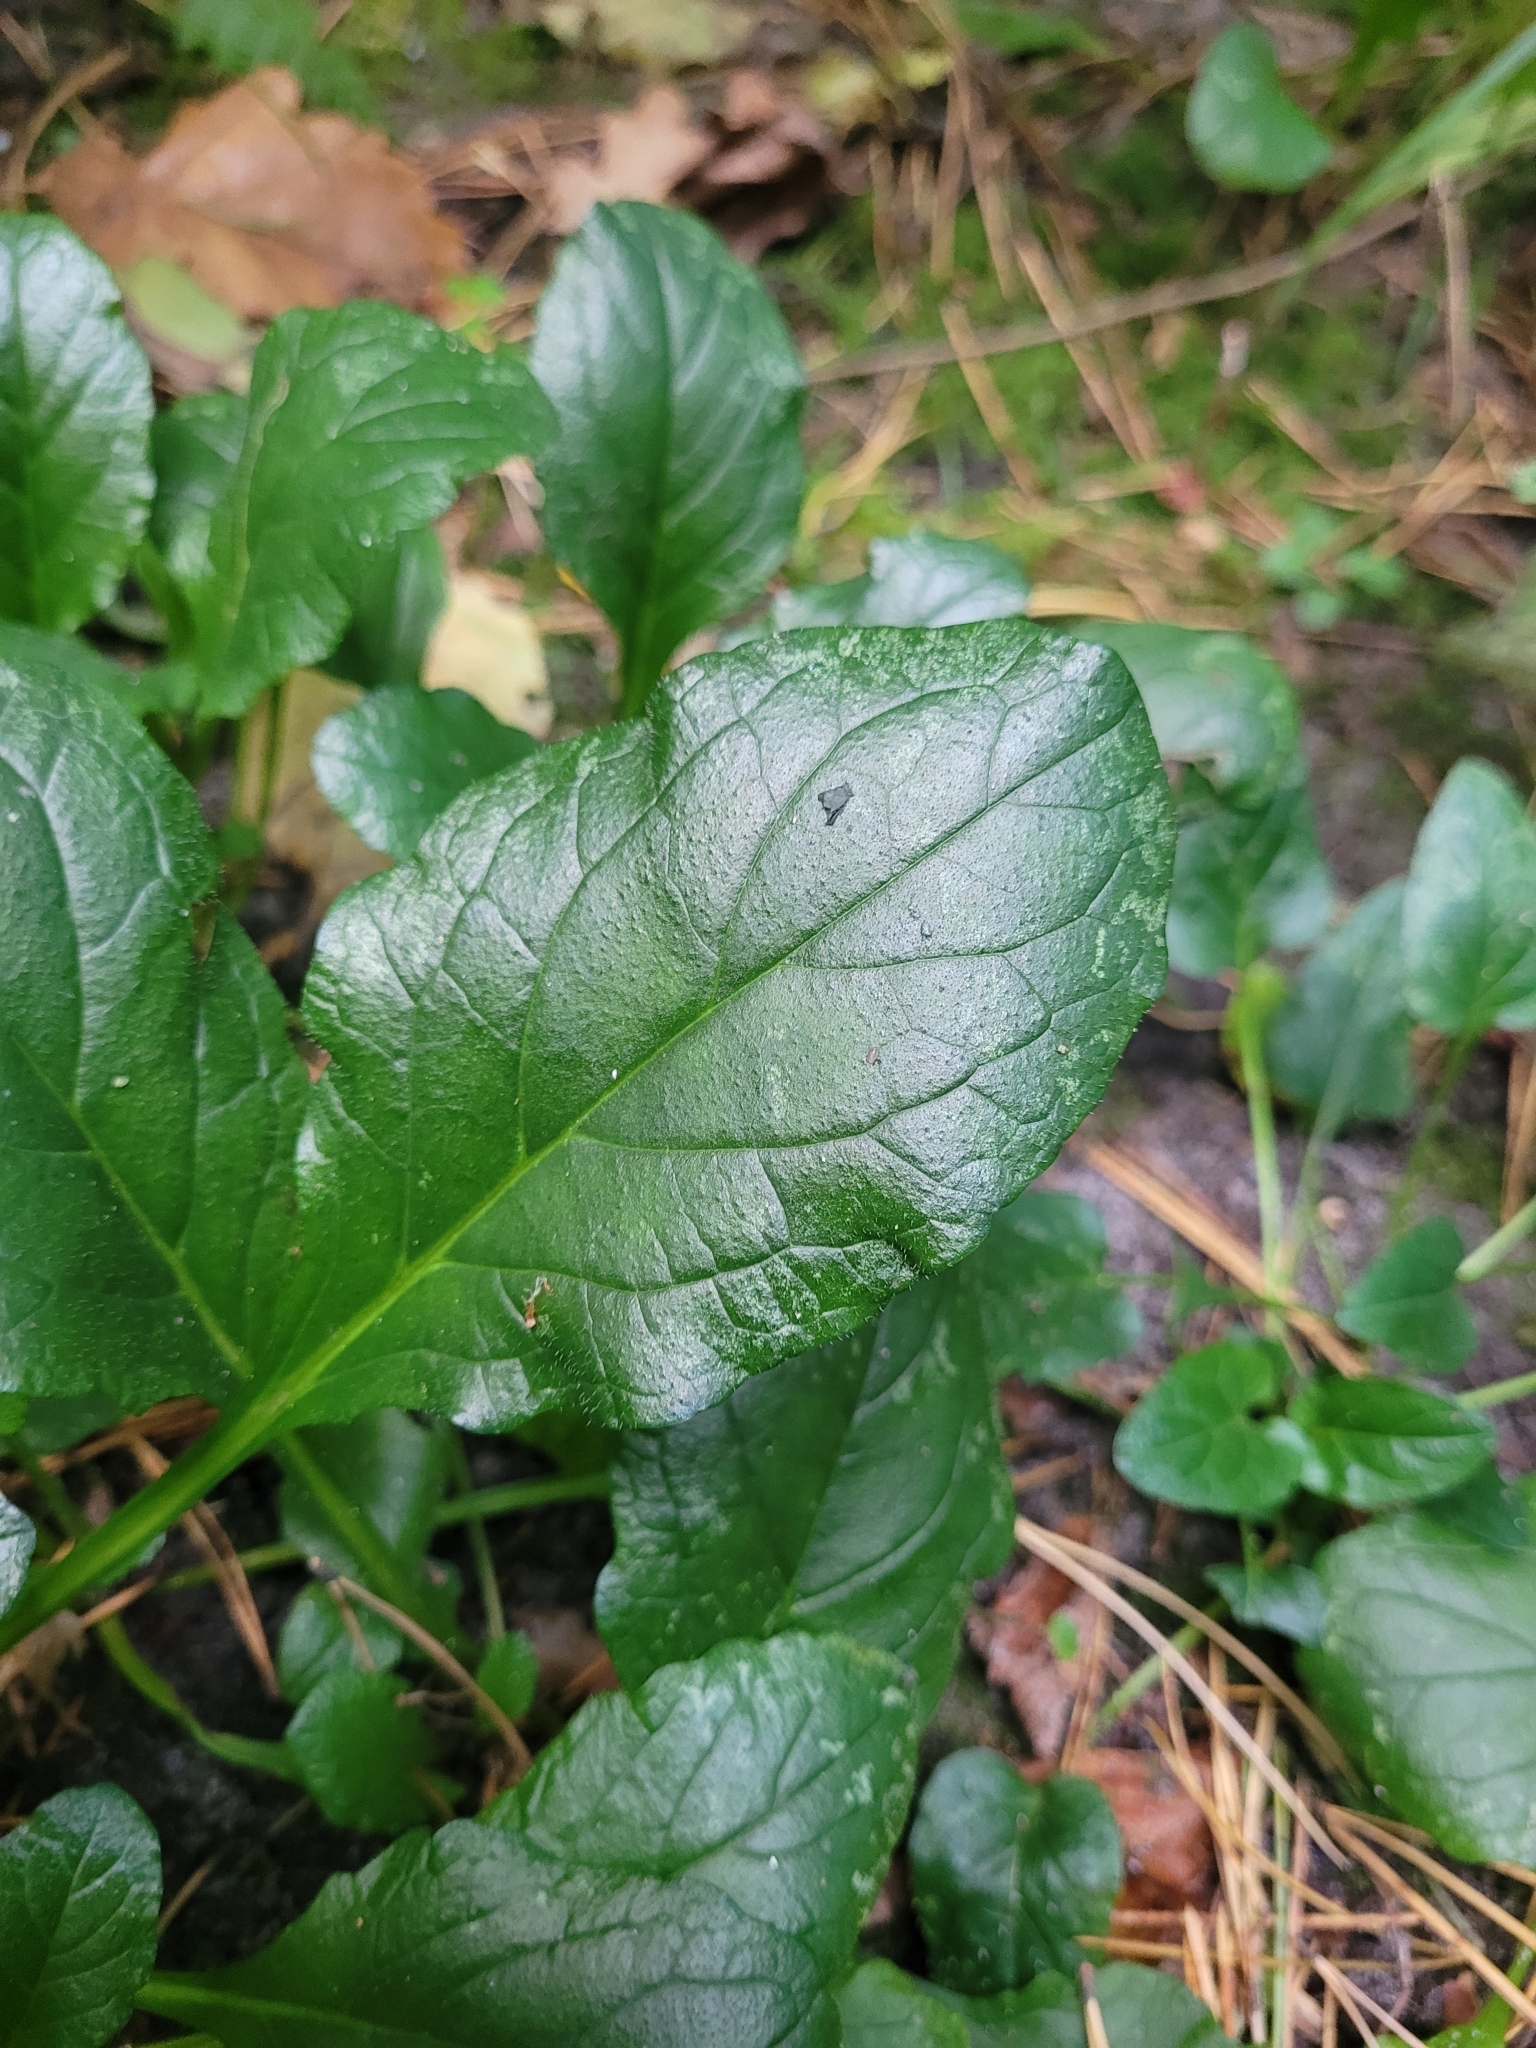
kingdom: Plantae
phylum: Tracheophyta
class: Magnoliopsida
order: Lamiales
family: Lamiaceae
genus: Ajuga
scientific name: Ajuga reptans
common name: Bugle
